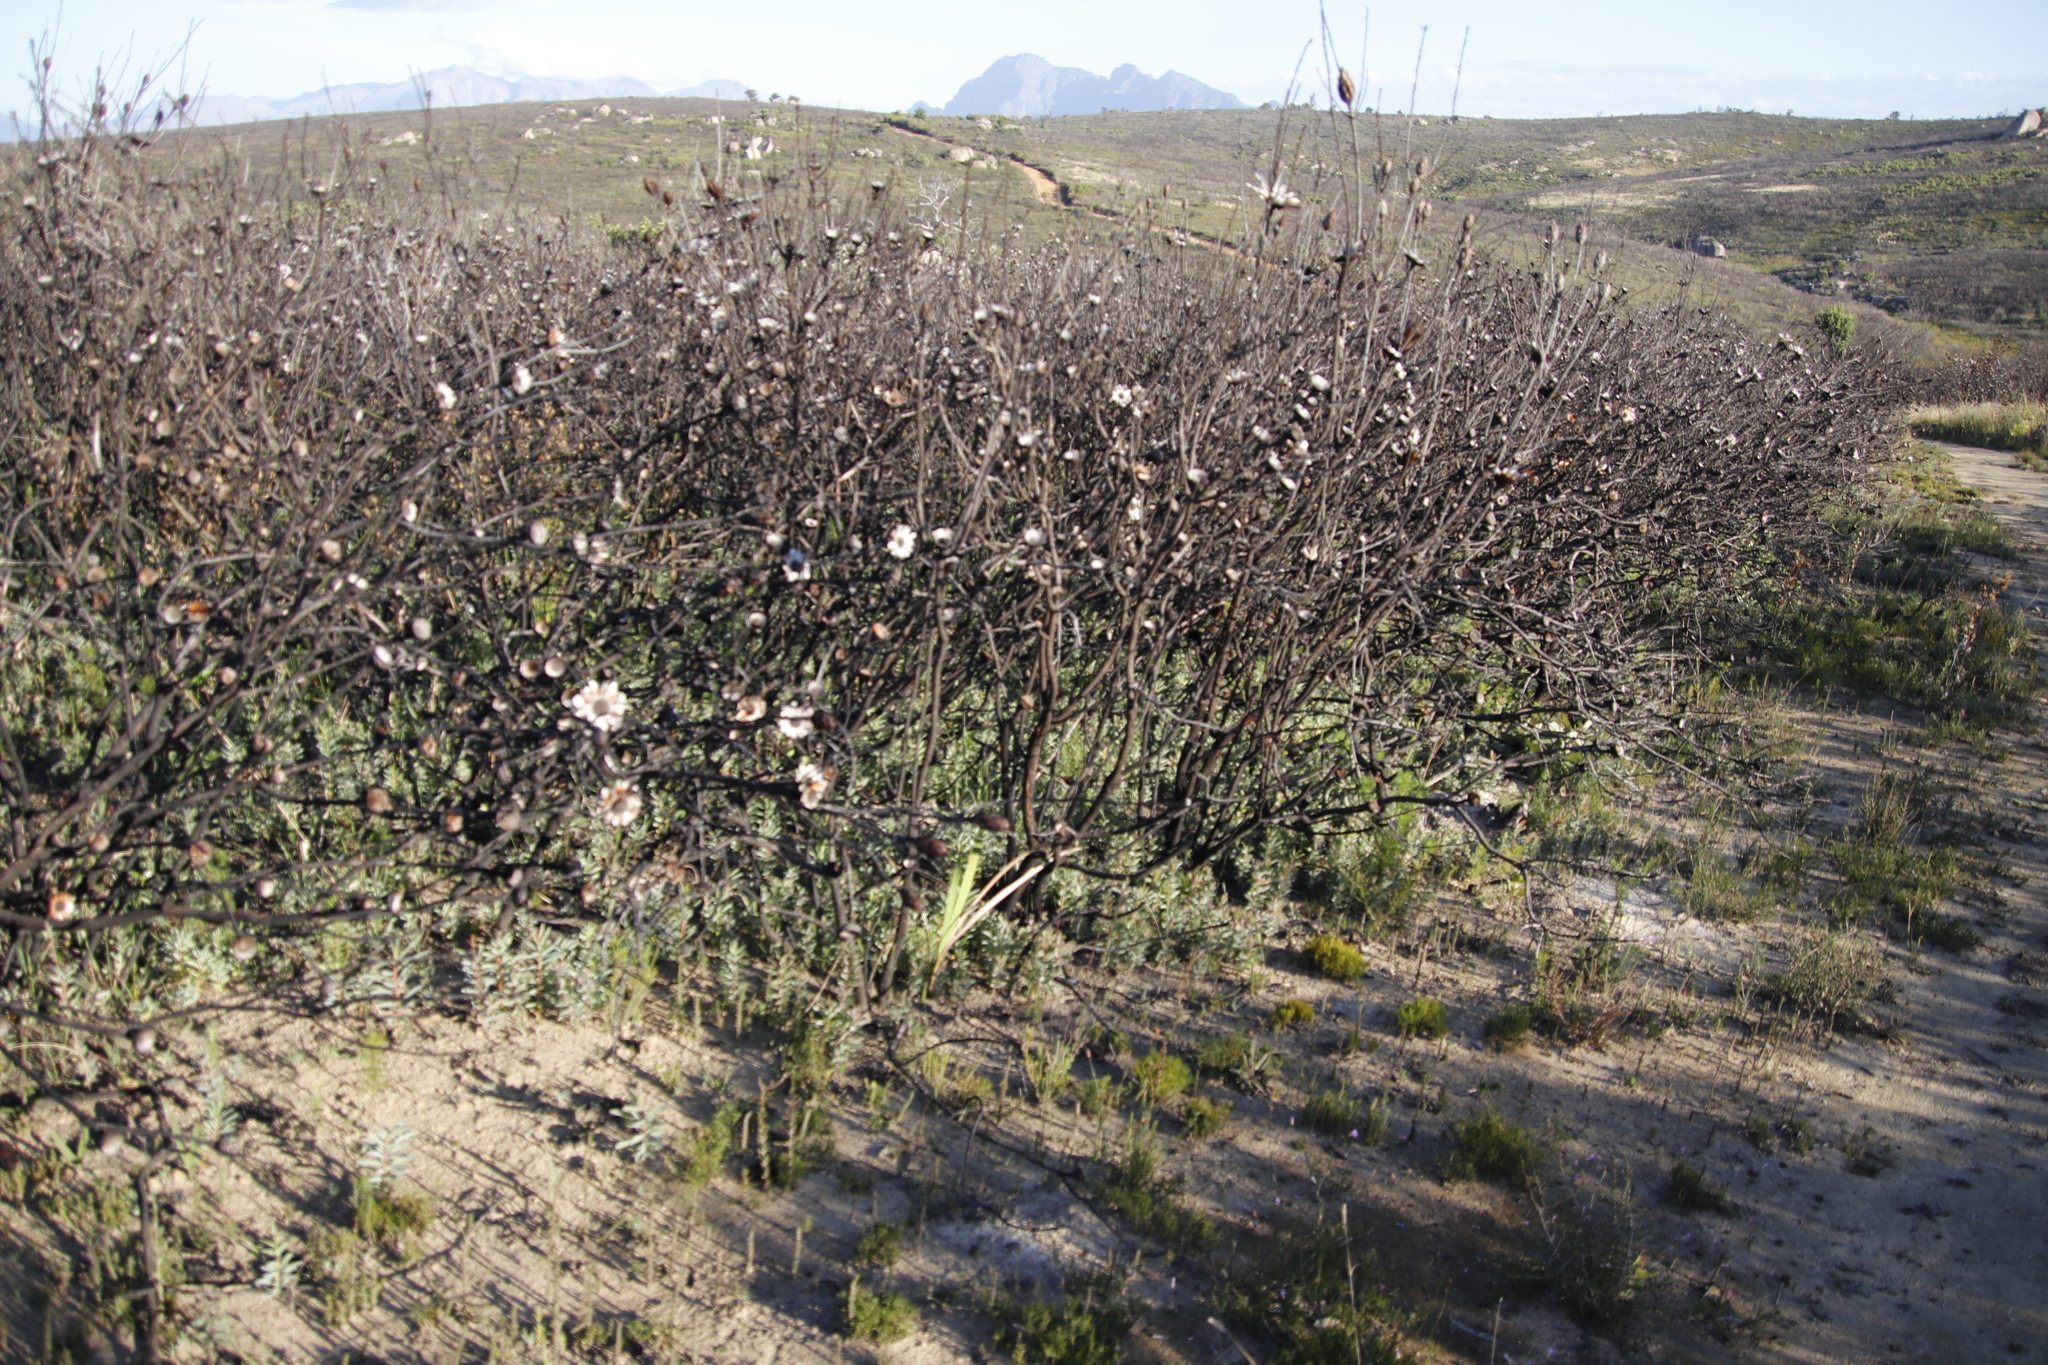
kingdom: Plantae
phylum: Tracheophyta
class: Magnoliopsida
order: Proteales
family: Proteaceae
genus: Protea
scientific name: Protea repens
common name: Sugarbush
